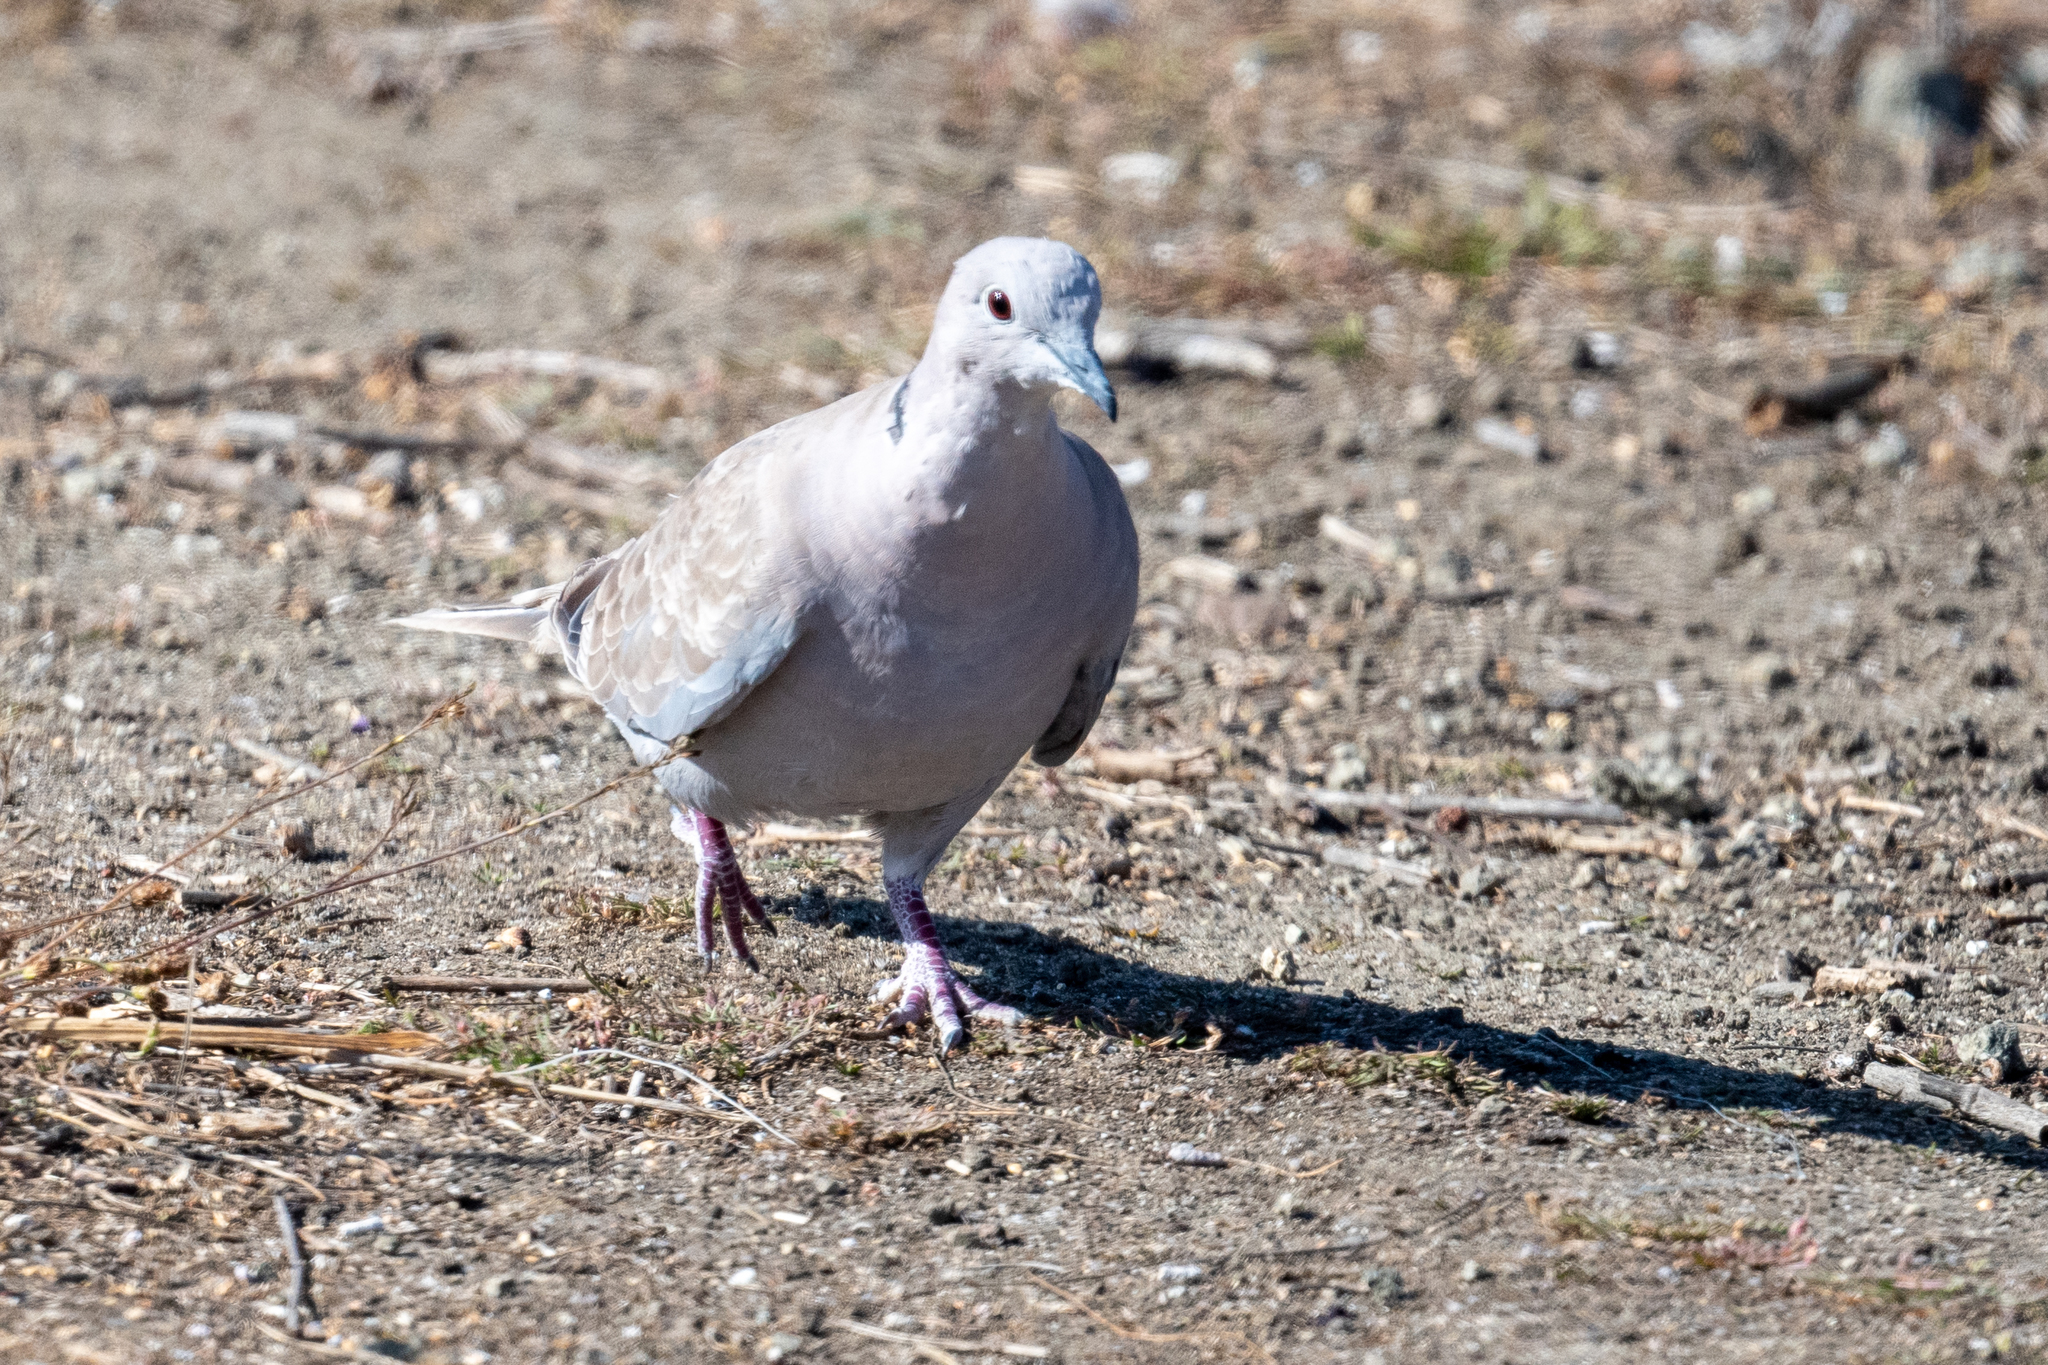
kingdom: Animalia
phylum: Chordata
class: Aves
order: Columbiformes
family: Columbidae
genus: Streptopelia
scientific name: Streptopelia decaocto
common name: Eurasian collared dove
